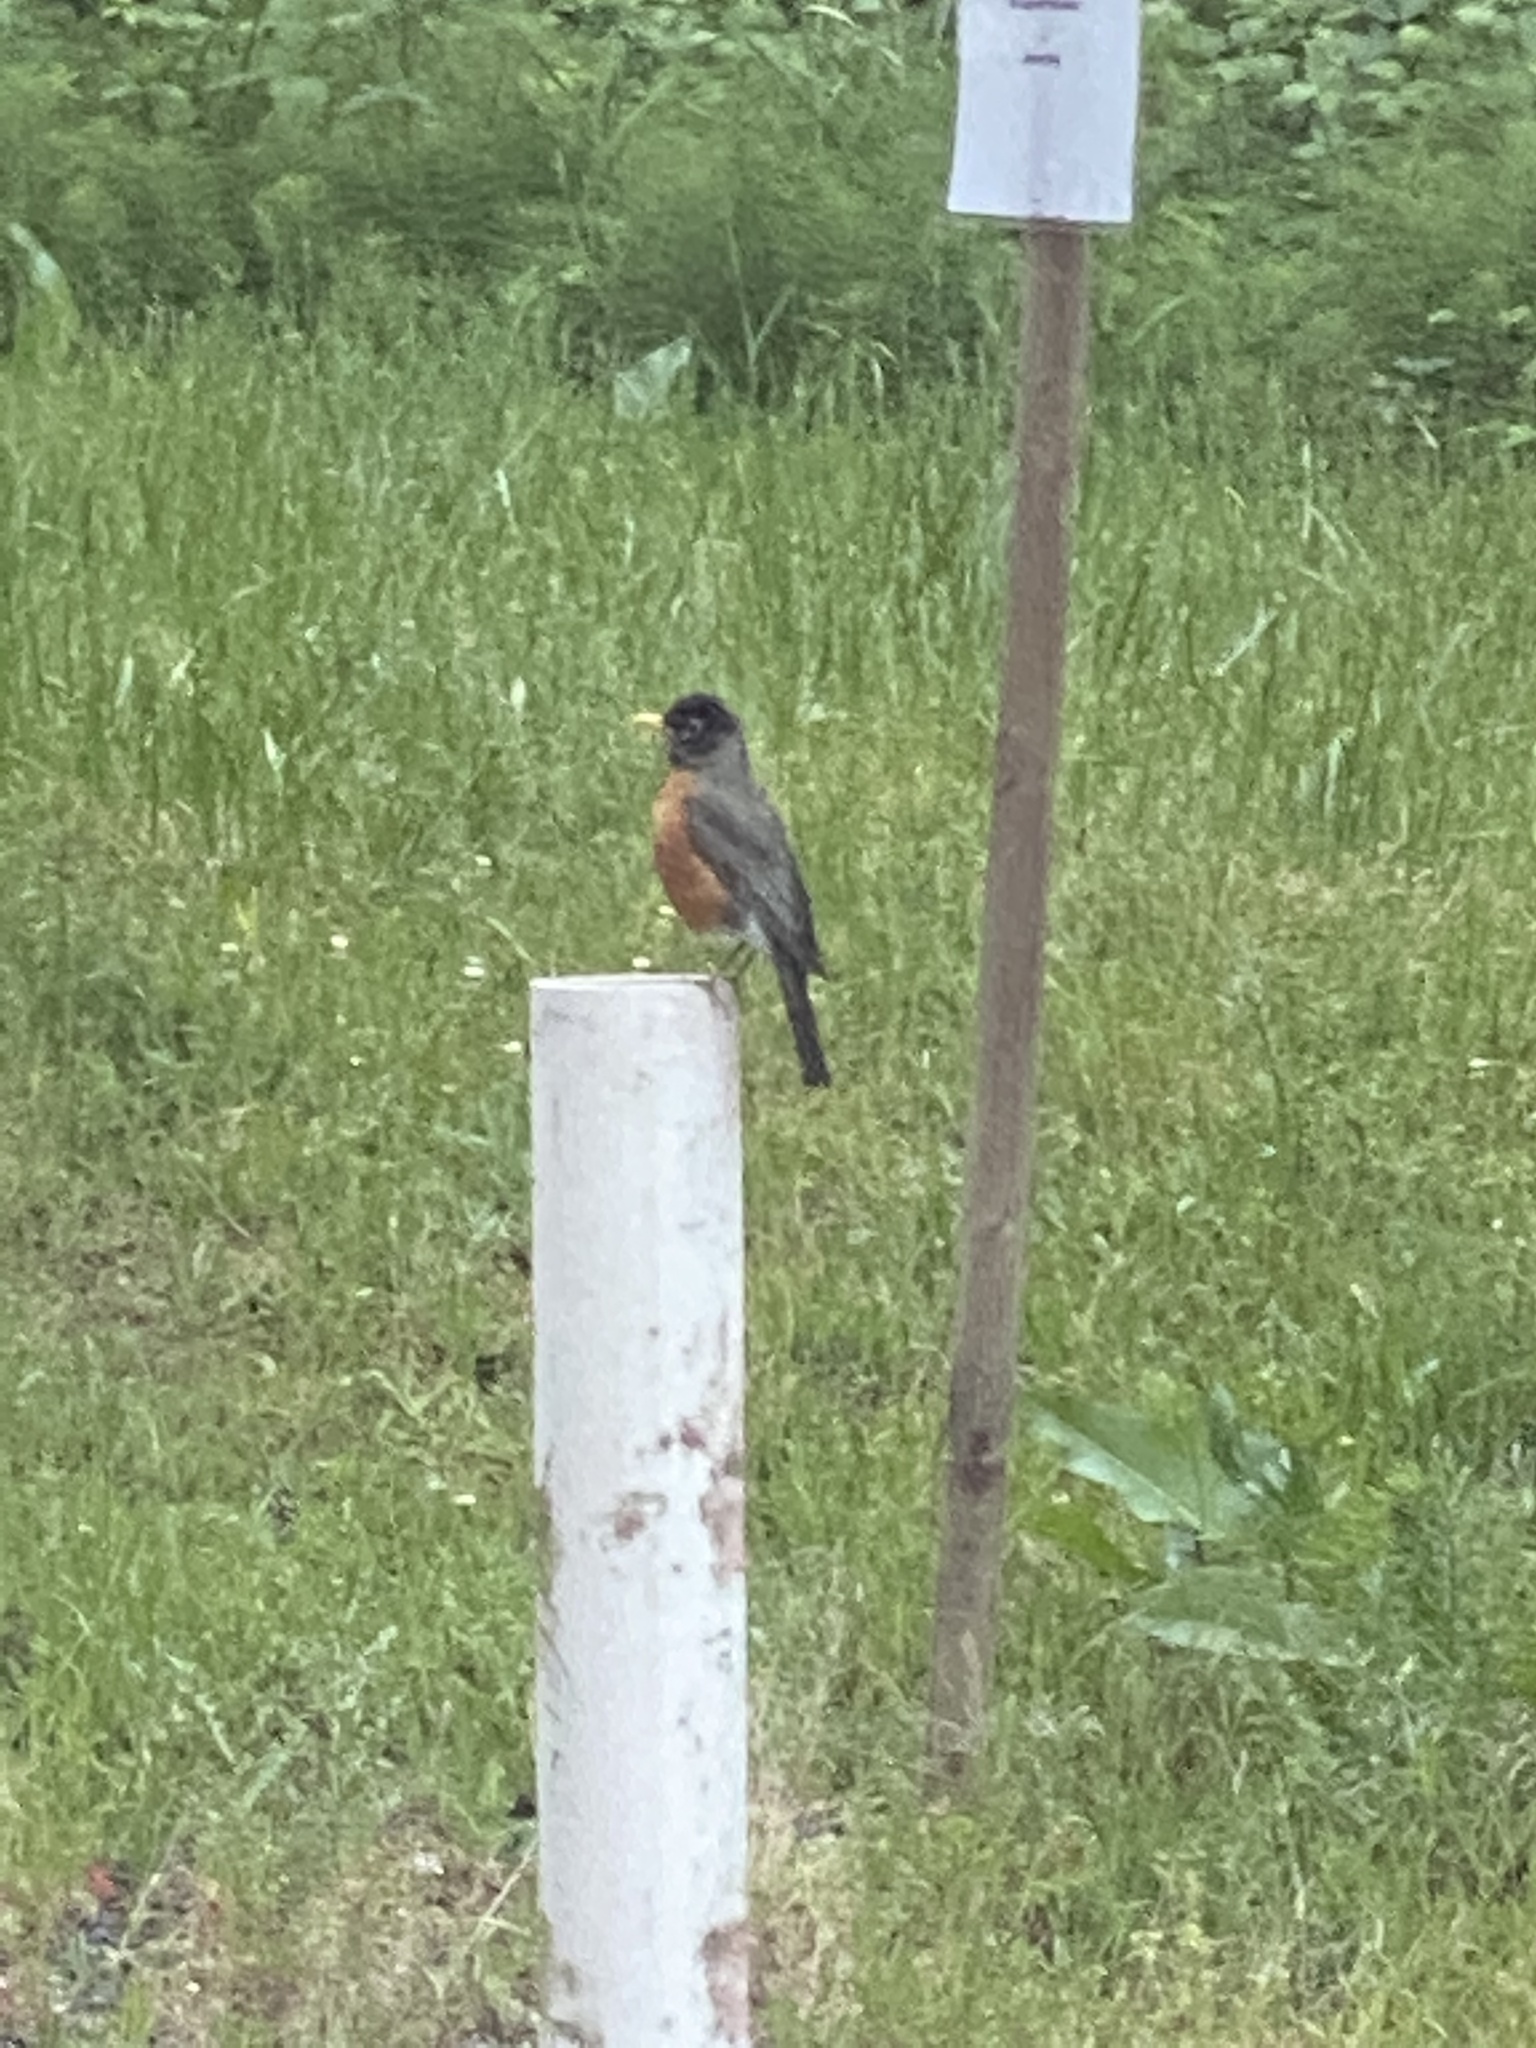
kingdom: Animalia
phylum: Chordata
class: Aves
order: Passeriformes
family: Turdidae
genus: Turdus
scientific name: Turdus migratorius
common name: American robin
